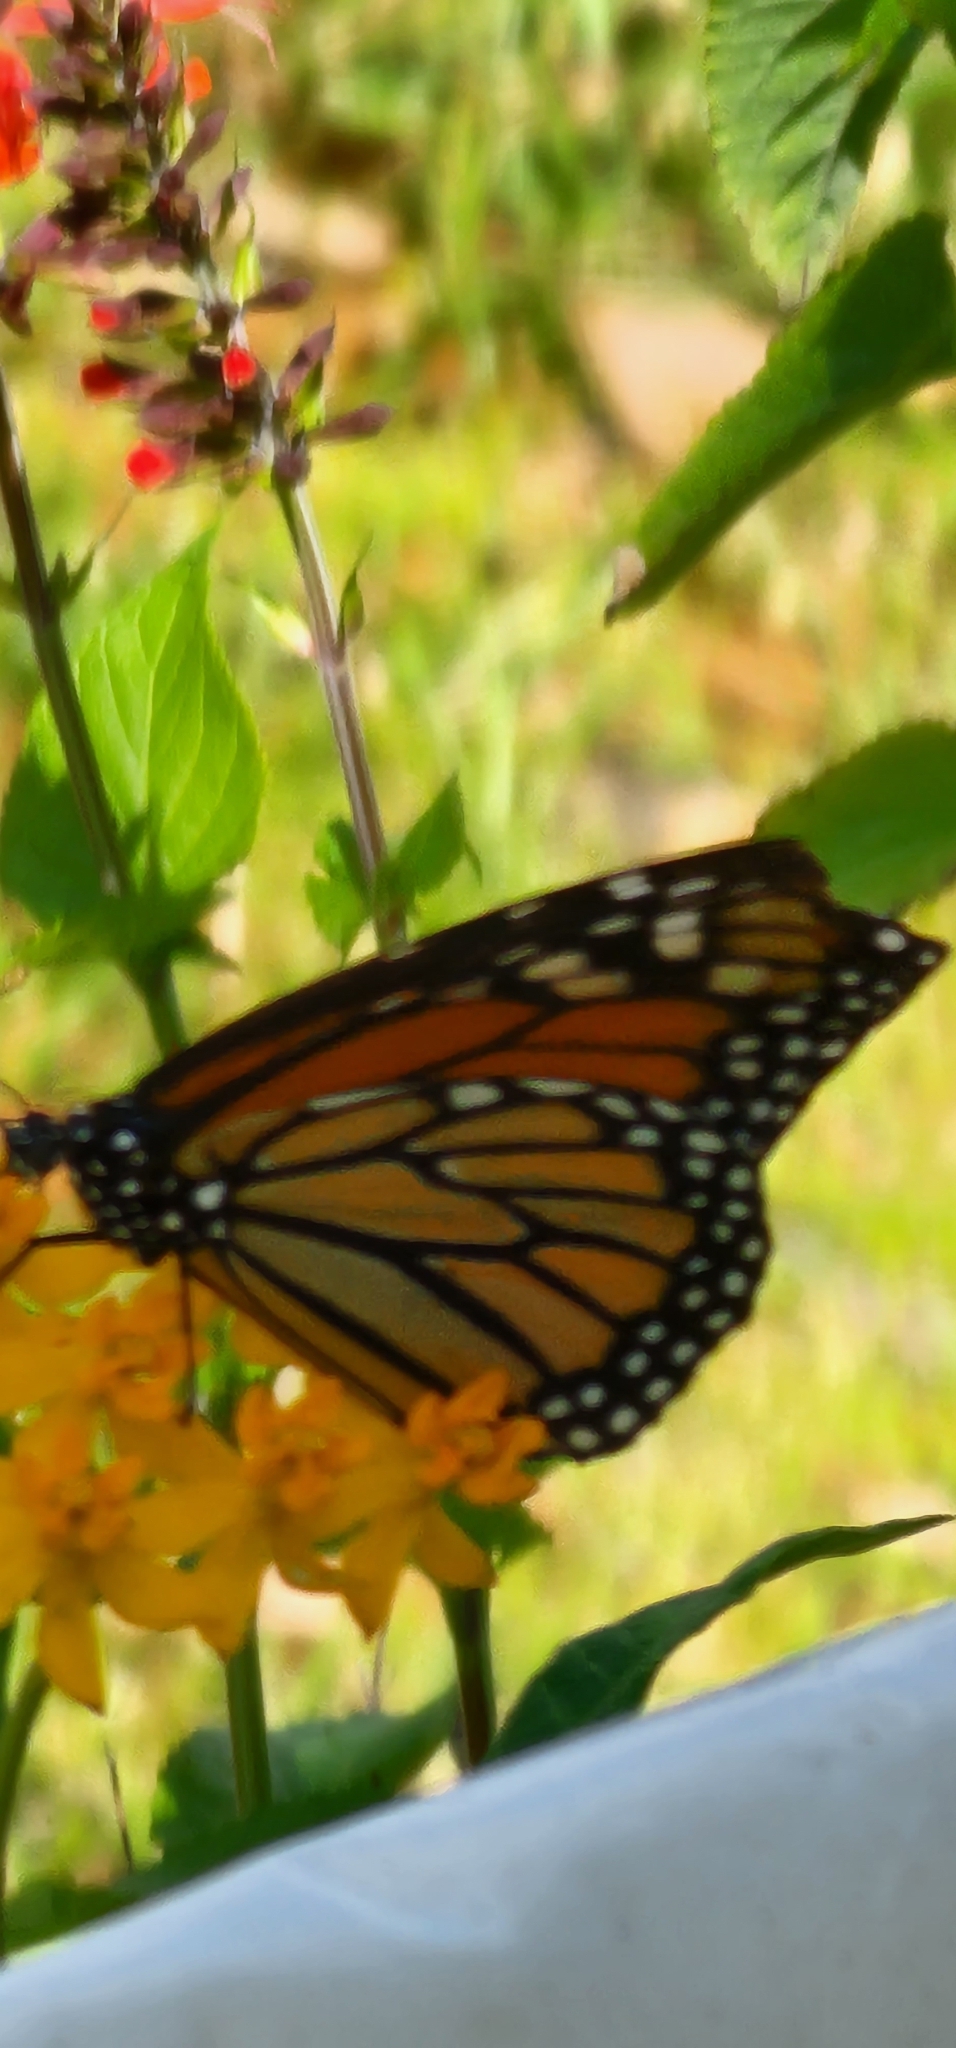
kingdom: Animalia
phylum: Arthropoda
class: Insecta
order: Lepidoptera
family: Nymphalidae
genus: Danaus
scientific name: Danaus plexippus
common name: Monarch
